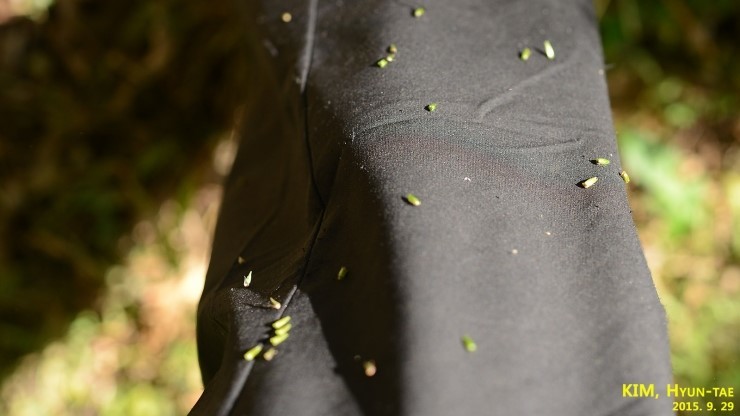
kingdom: Plantae
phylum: Tracheophyta
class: Magnoliopsida
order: Caryophyllales
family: Amaranthaceae
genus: Achyranthes
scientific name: Achyranthes bidentata
